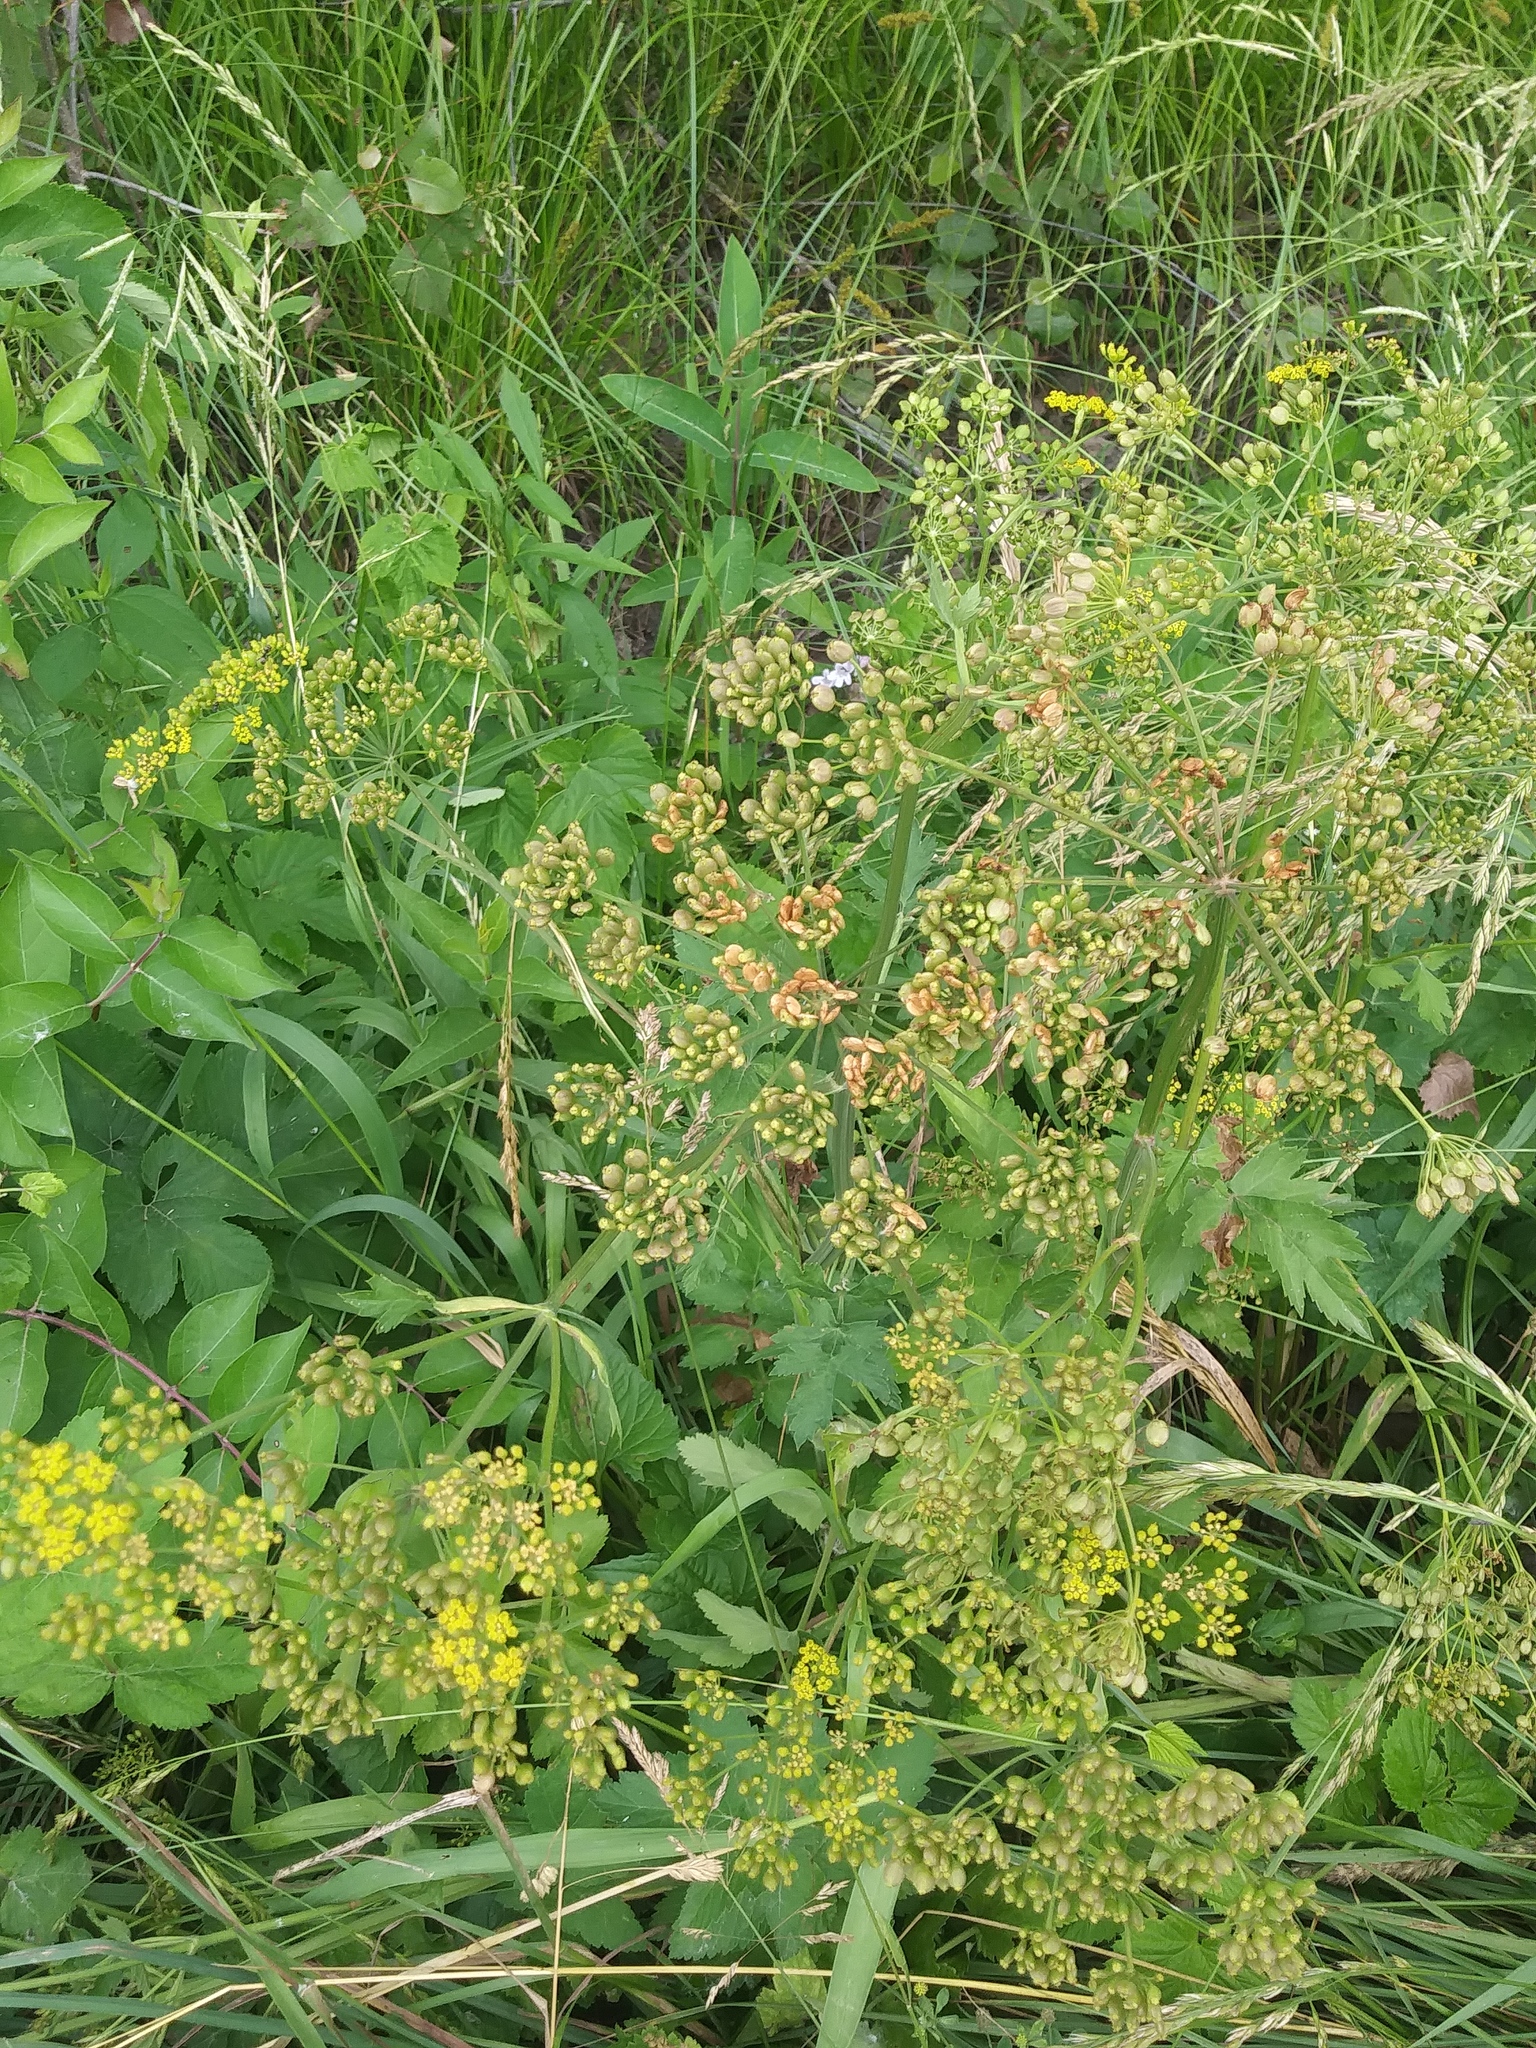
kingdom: Plantae
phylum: Tracheophyta
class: Magnoliopsida
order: Apiales
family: Apiaceae
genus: Pastinaca
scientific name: Pastinaca sativa
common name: Wild parsnip
